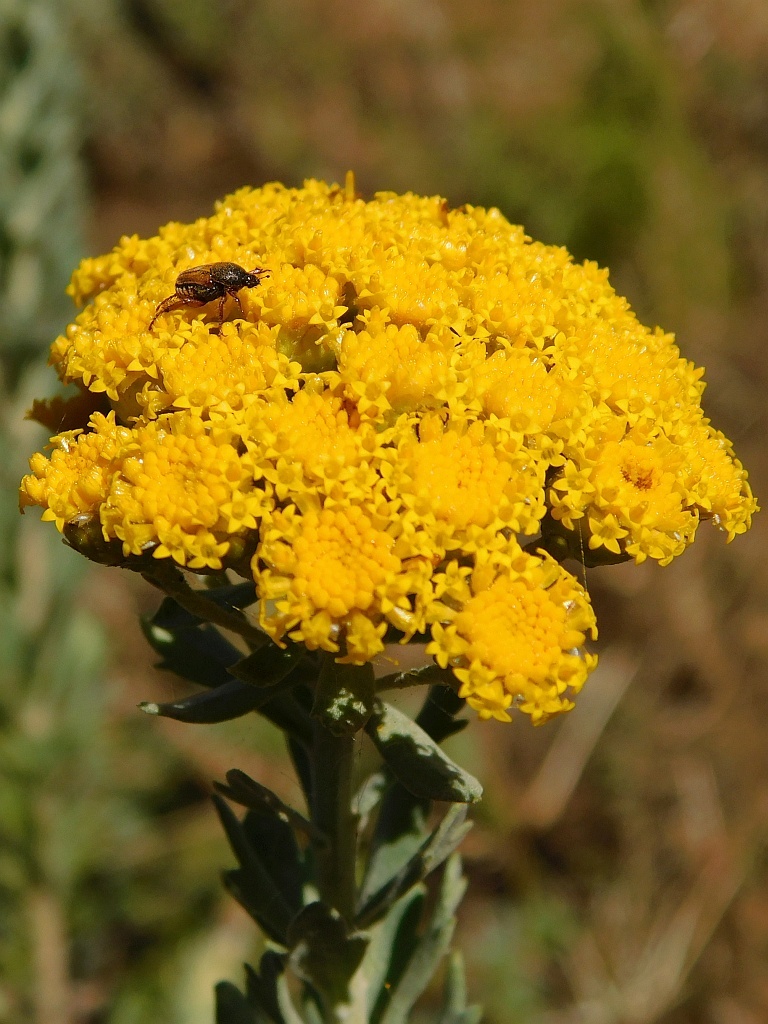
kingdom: Plantae
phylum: Tracheophyta
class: Magnoliopsida
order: Asterales
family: Asteraceae
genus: Athanasia
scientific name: Athanasia trifurcata
